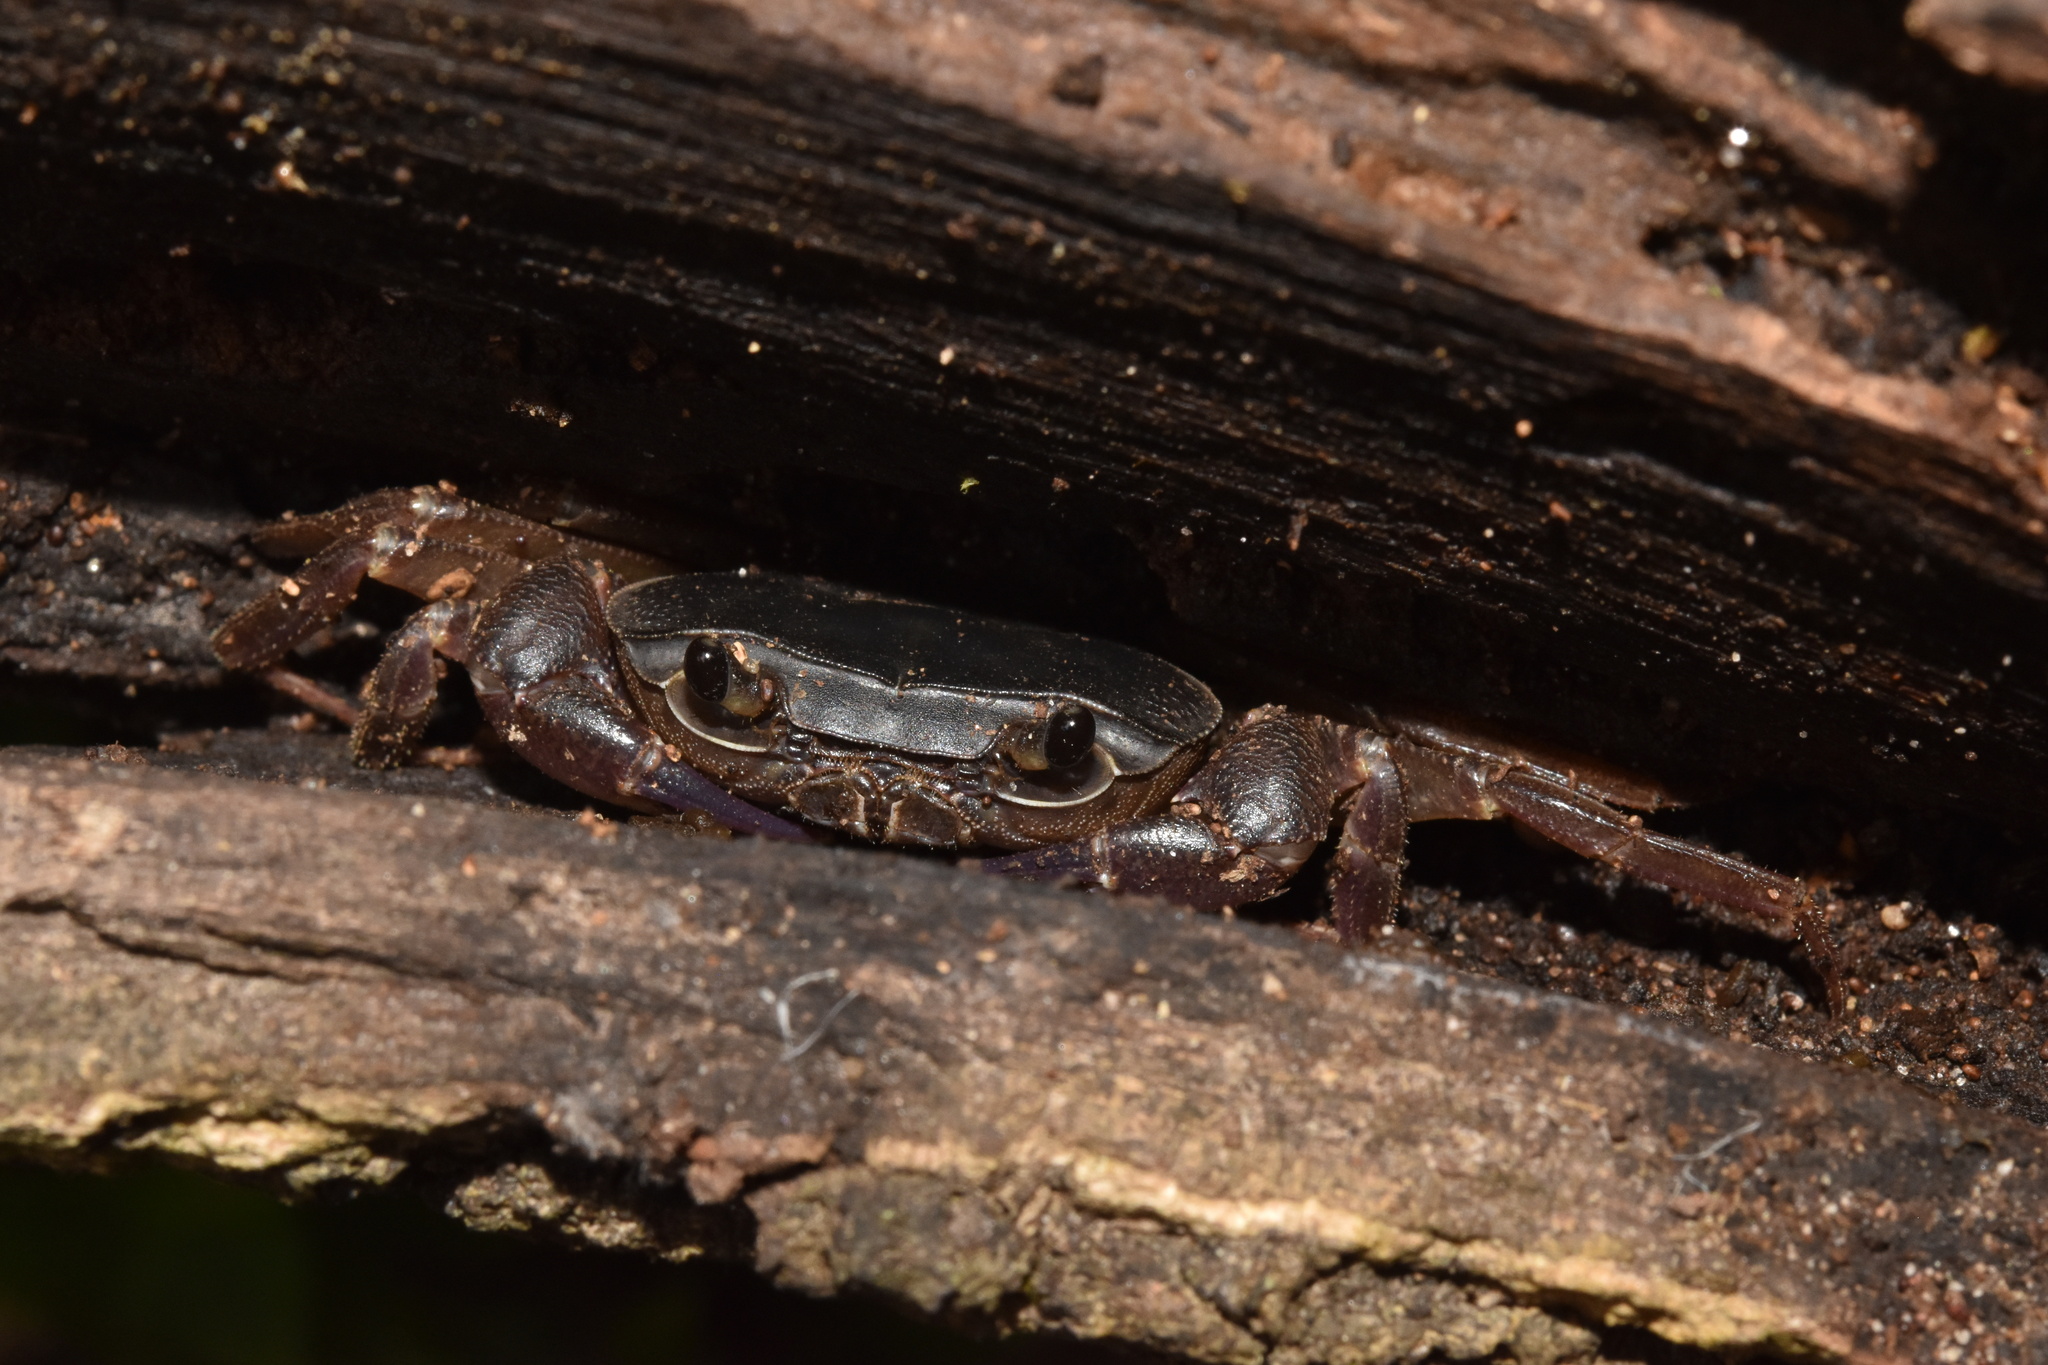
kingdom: Animalia
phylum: Arthropoda
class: Malacostraca
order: Decapoda
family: Potamonautidae
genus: Potamonautes
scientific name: Potamonautes sidneyi
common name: Natal river crab
